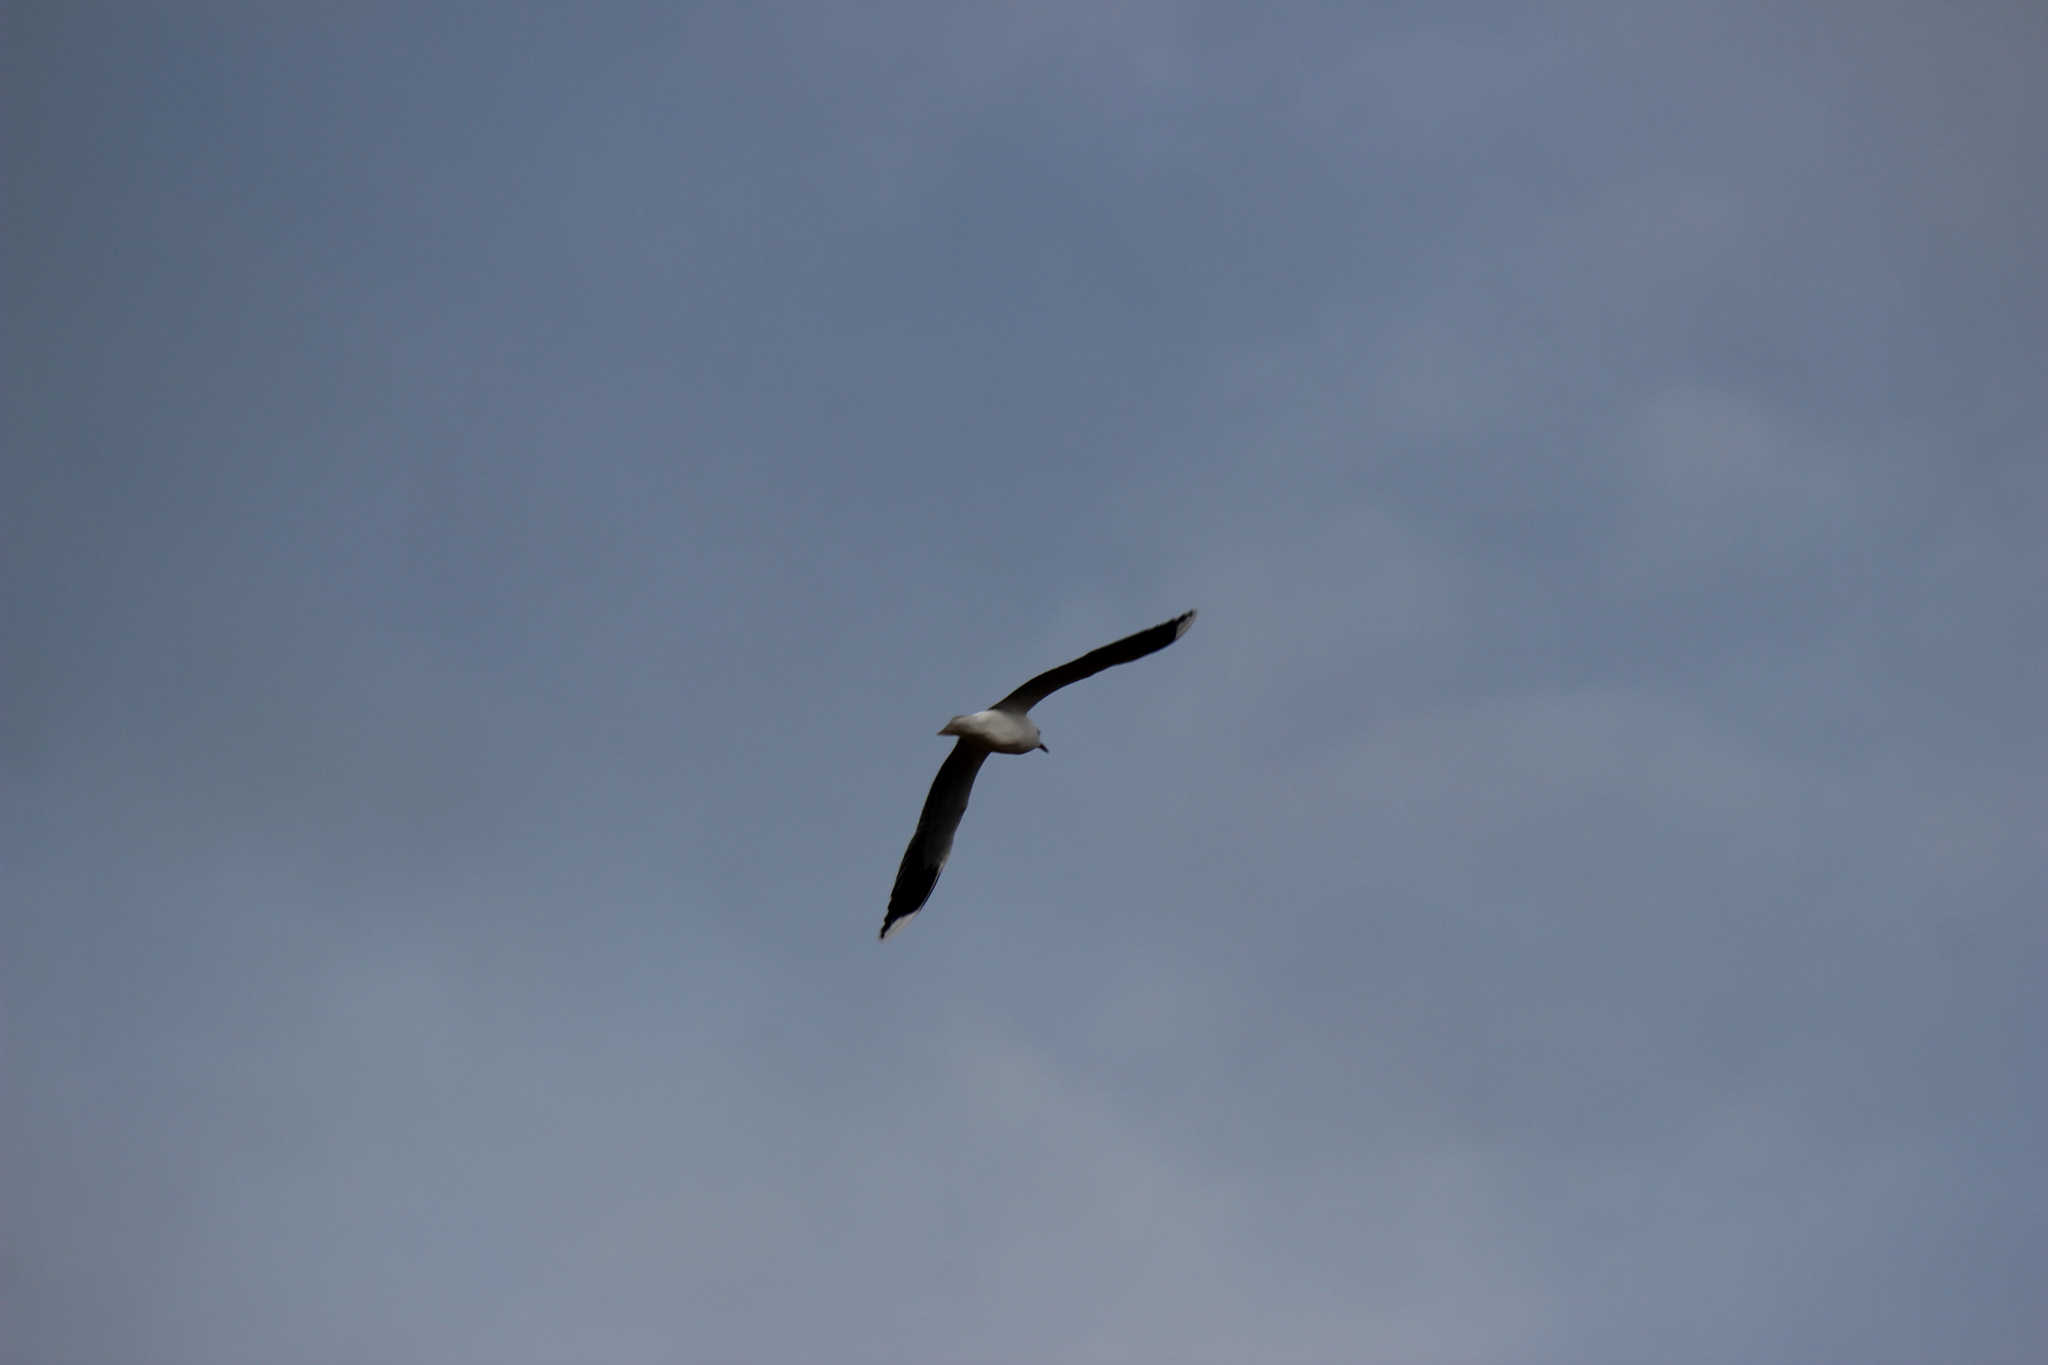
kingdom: Animalia
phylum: Chordata
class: Aves
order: Charadriiformes
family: Laridae
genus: Chroicocephalus
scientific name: Chroicocephalus maculipennis
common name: Brown-hooded gull
